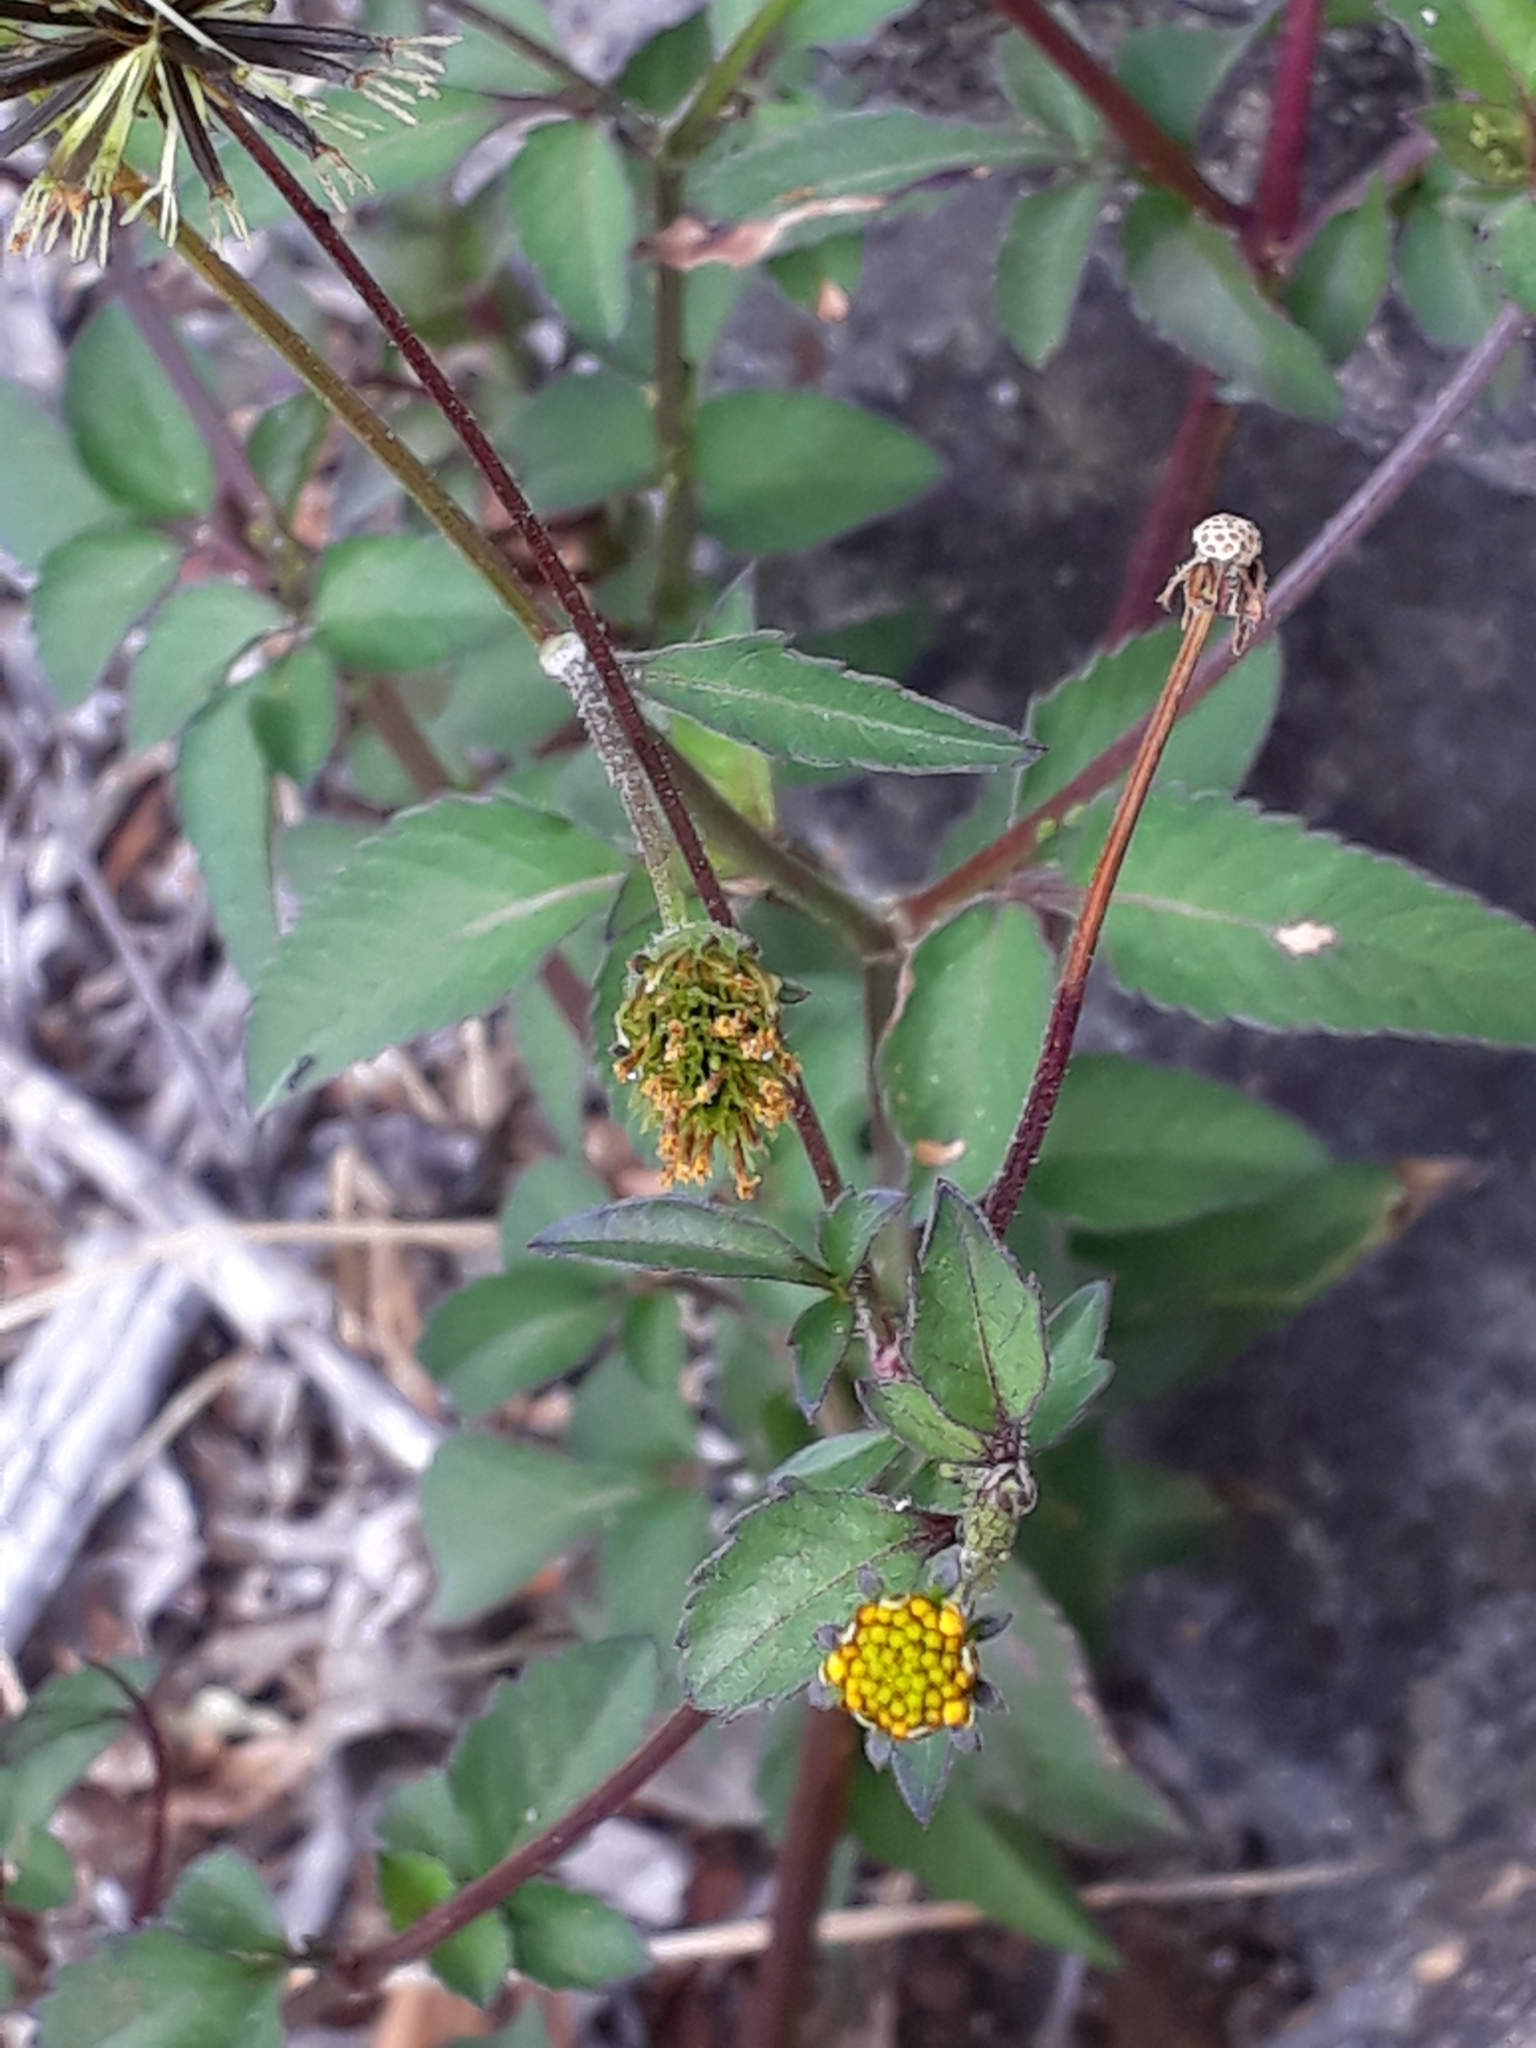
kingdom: Plantae
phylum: Tracheophyta
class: Magnoliopsida
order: Asterales
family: Asteraceae
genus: Bidens
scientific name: Bidens pilosa
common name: Black-jack
